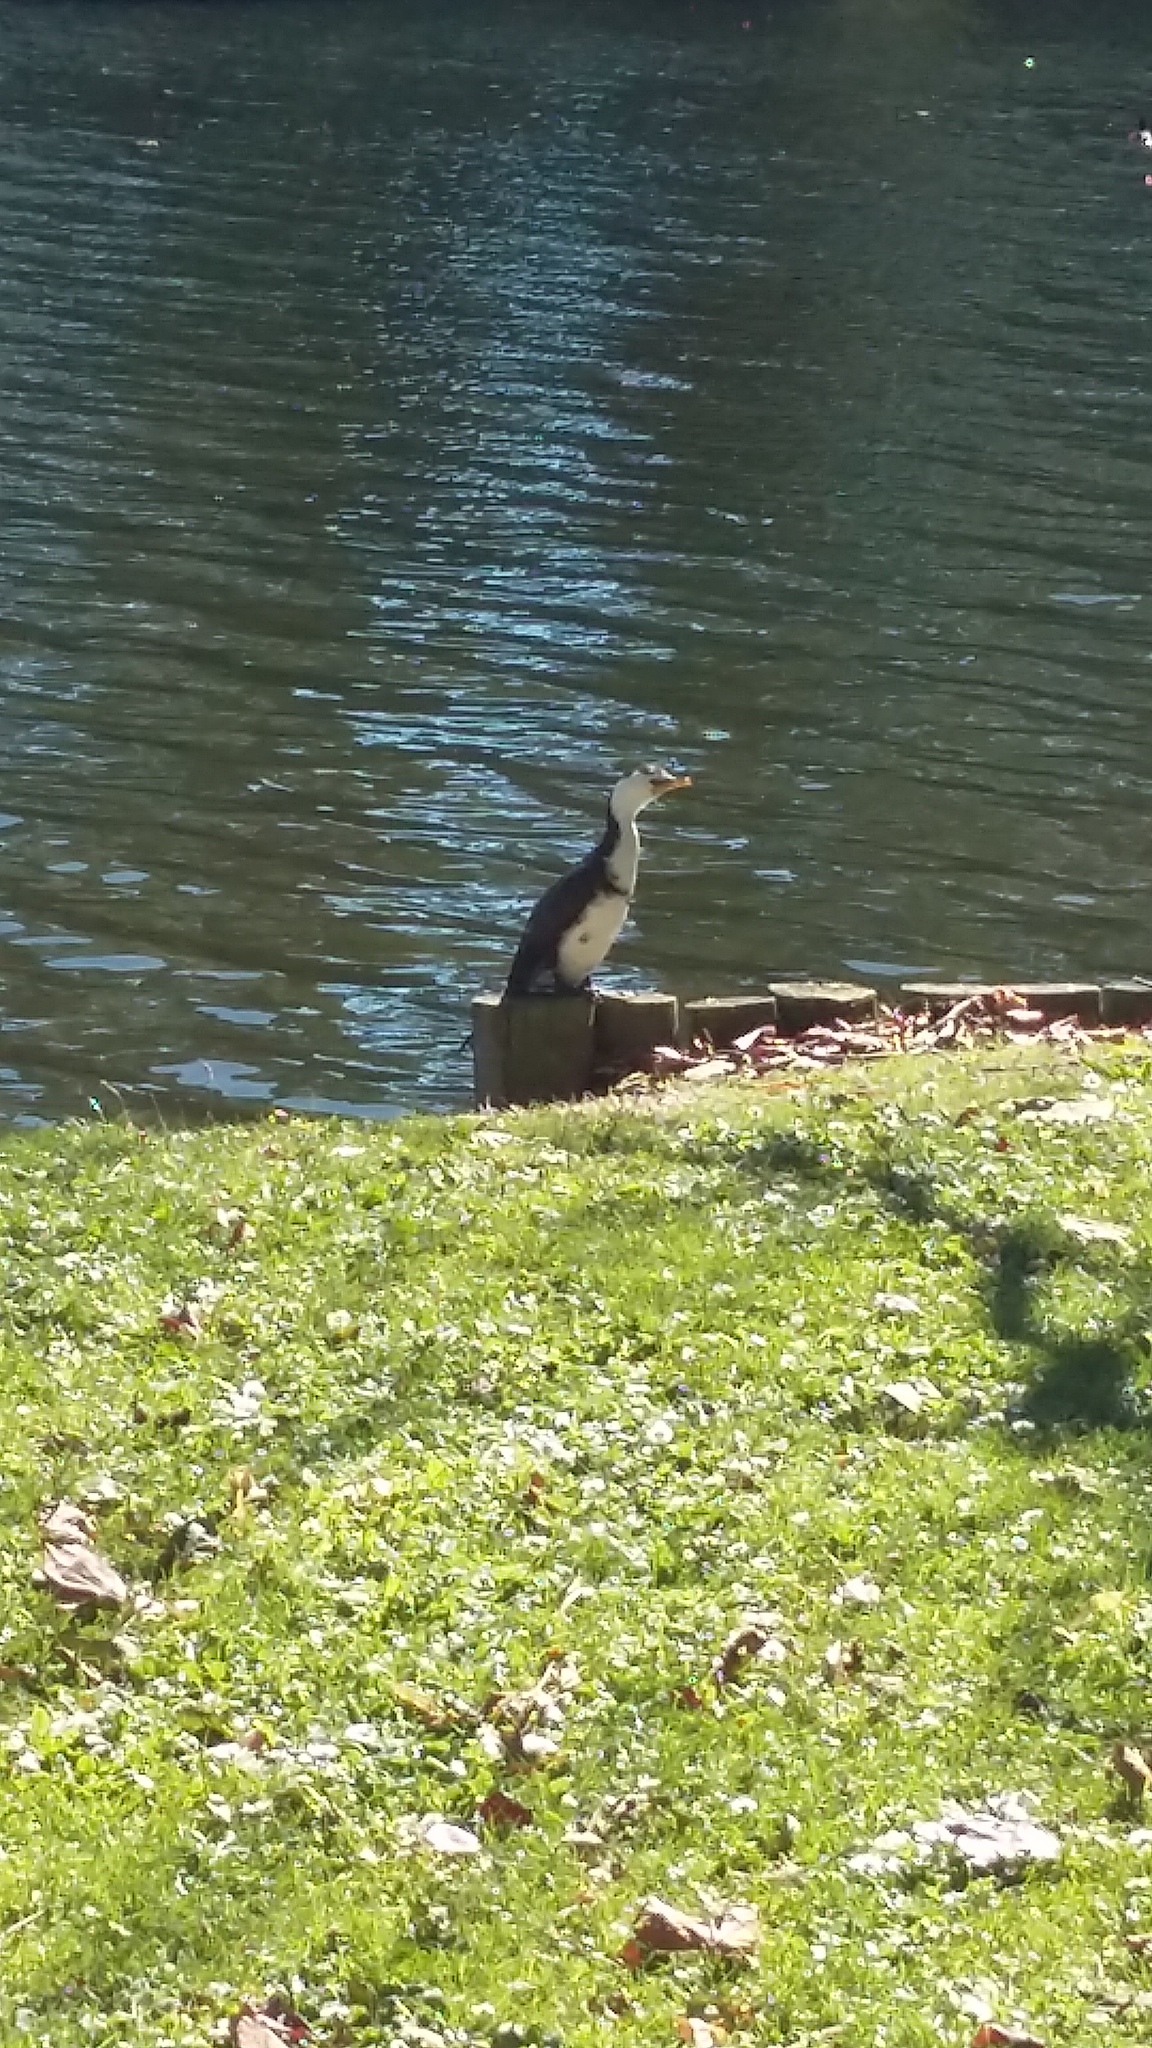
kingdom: Animalia
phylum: Chordata
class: Aves
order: Suliformes
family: Phalacrocoracidae
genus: Microcarbo
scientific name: Microcarbo melanoleucos
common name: Little pied cormorant
